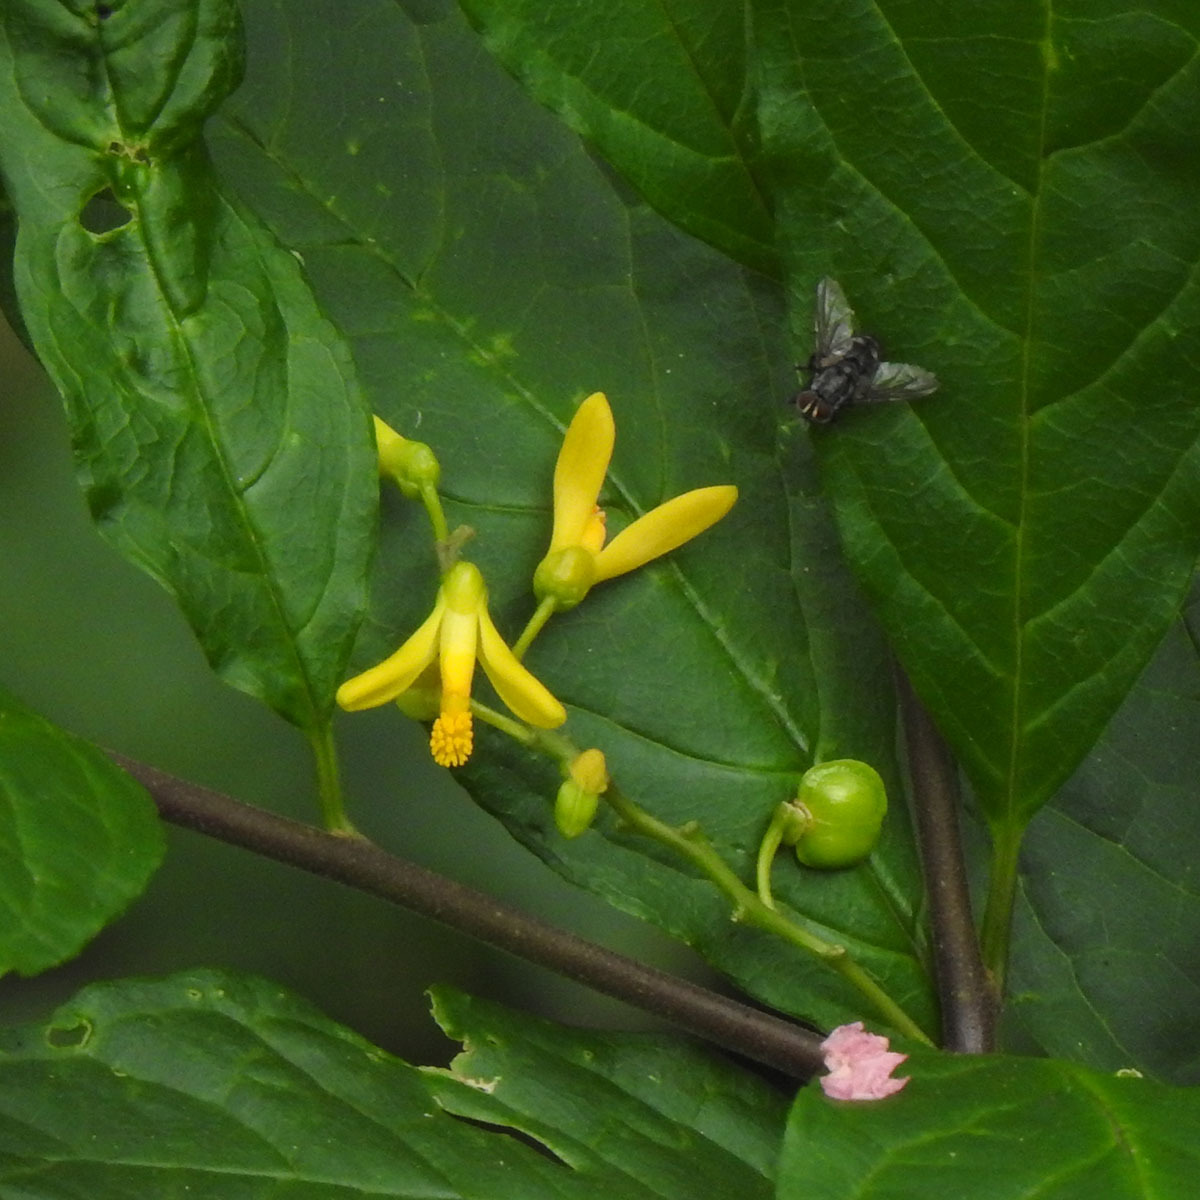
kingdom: Plantae
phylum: Tracheophyta
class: Magnoliopsida
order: Fabales
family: Polygalaceae
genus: Polygala
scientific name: Polygala arillata
